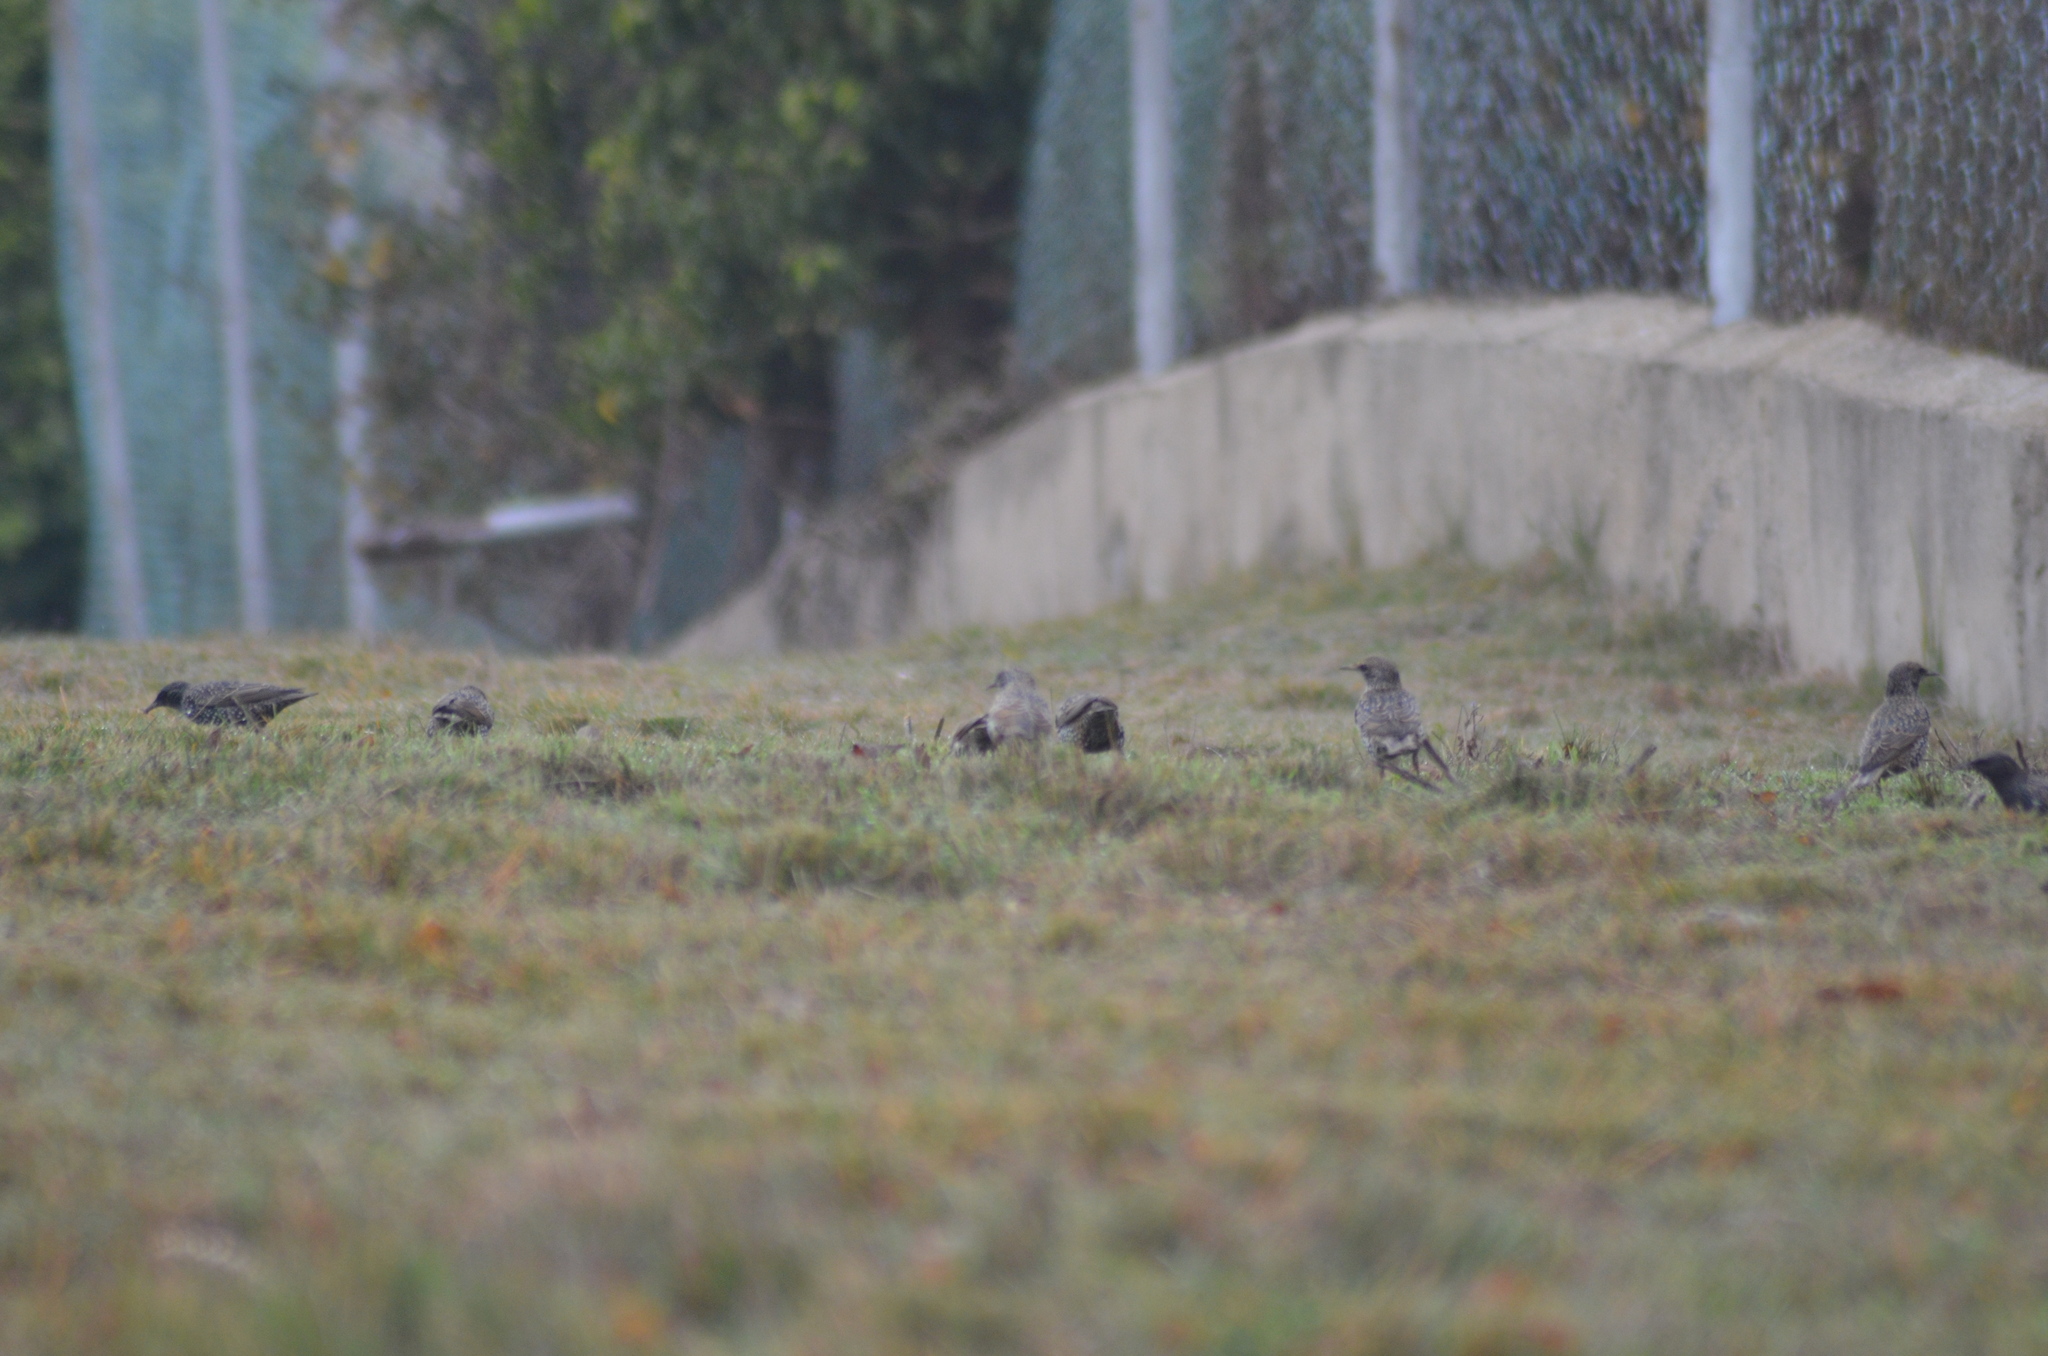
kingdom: Animalia
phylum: Chordata
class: Aves
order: Passeriformes
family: Sturnidae
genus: Sturnus
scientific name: Sturnus vulgaris
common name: Common starling
